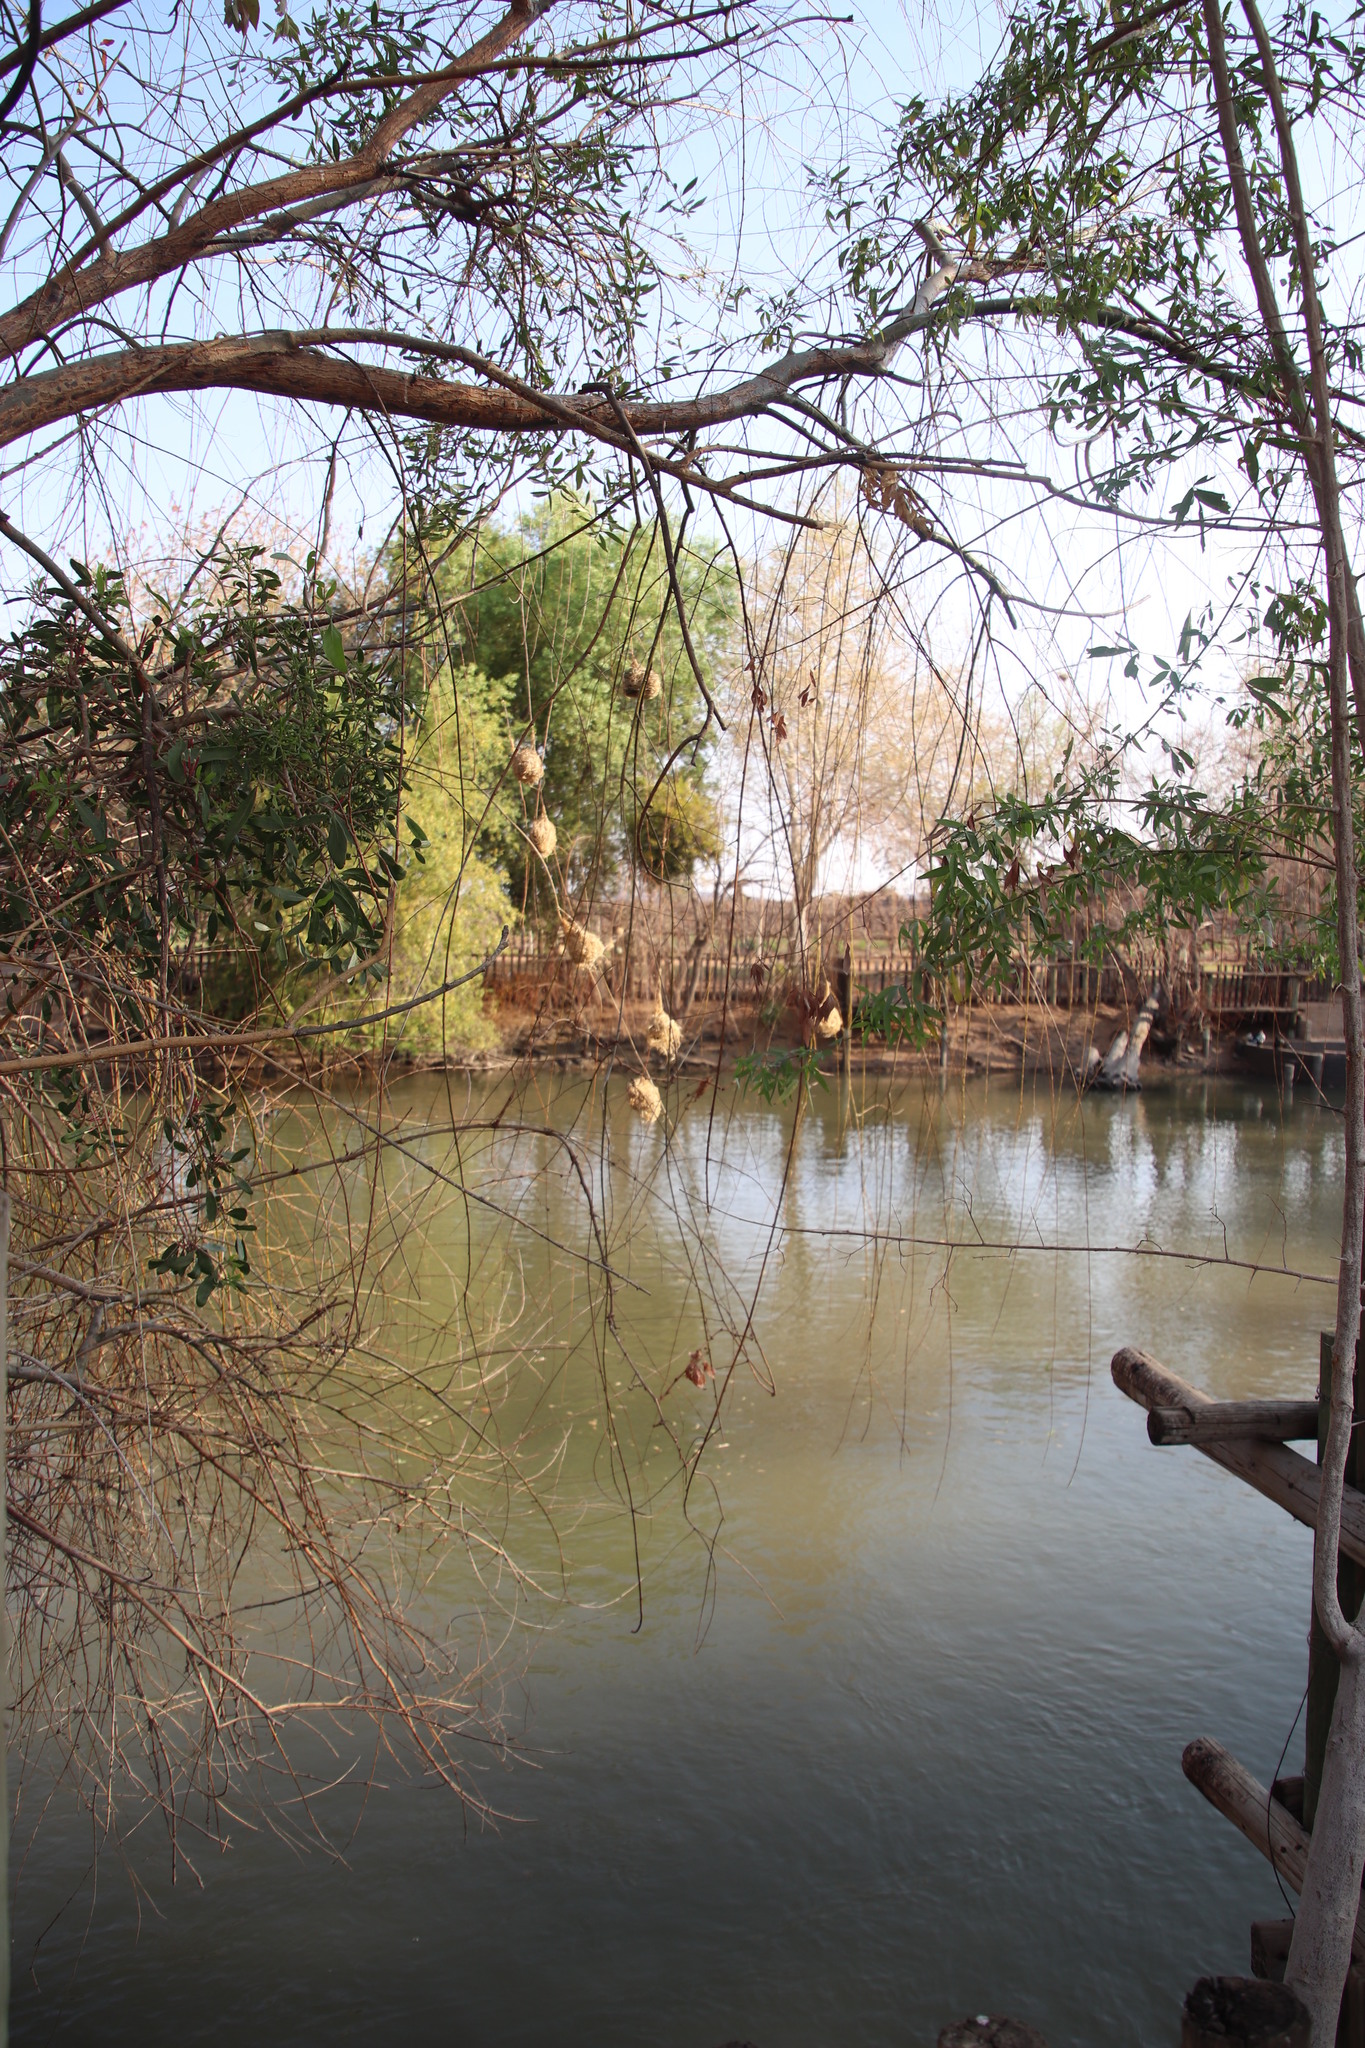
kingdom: Plantae
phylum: Tracheophyta
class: Magnoliopsida
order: Sapindales
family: Anacardiaceae
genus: Searsia
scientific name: Searsia pendulina
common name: White karee
